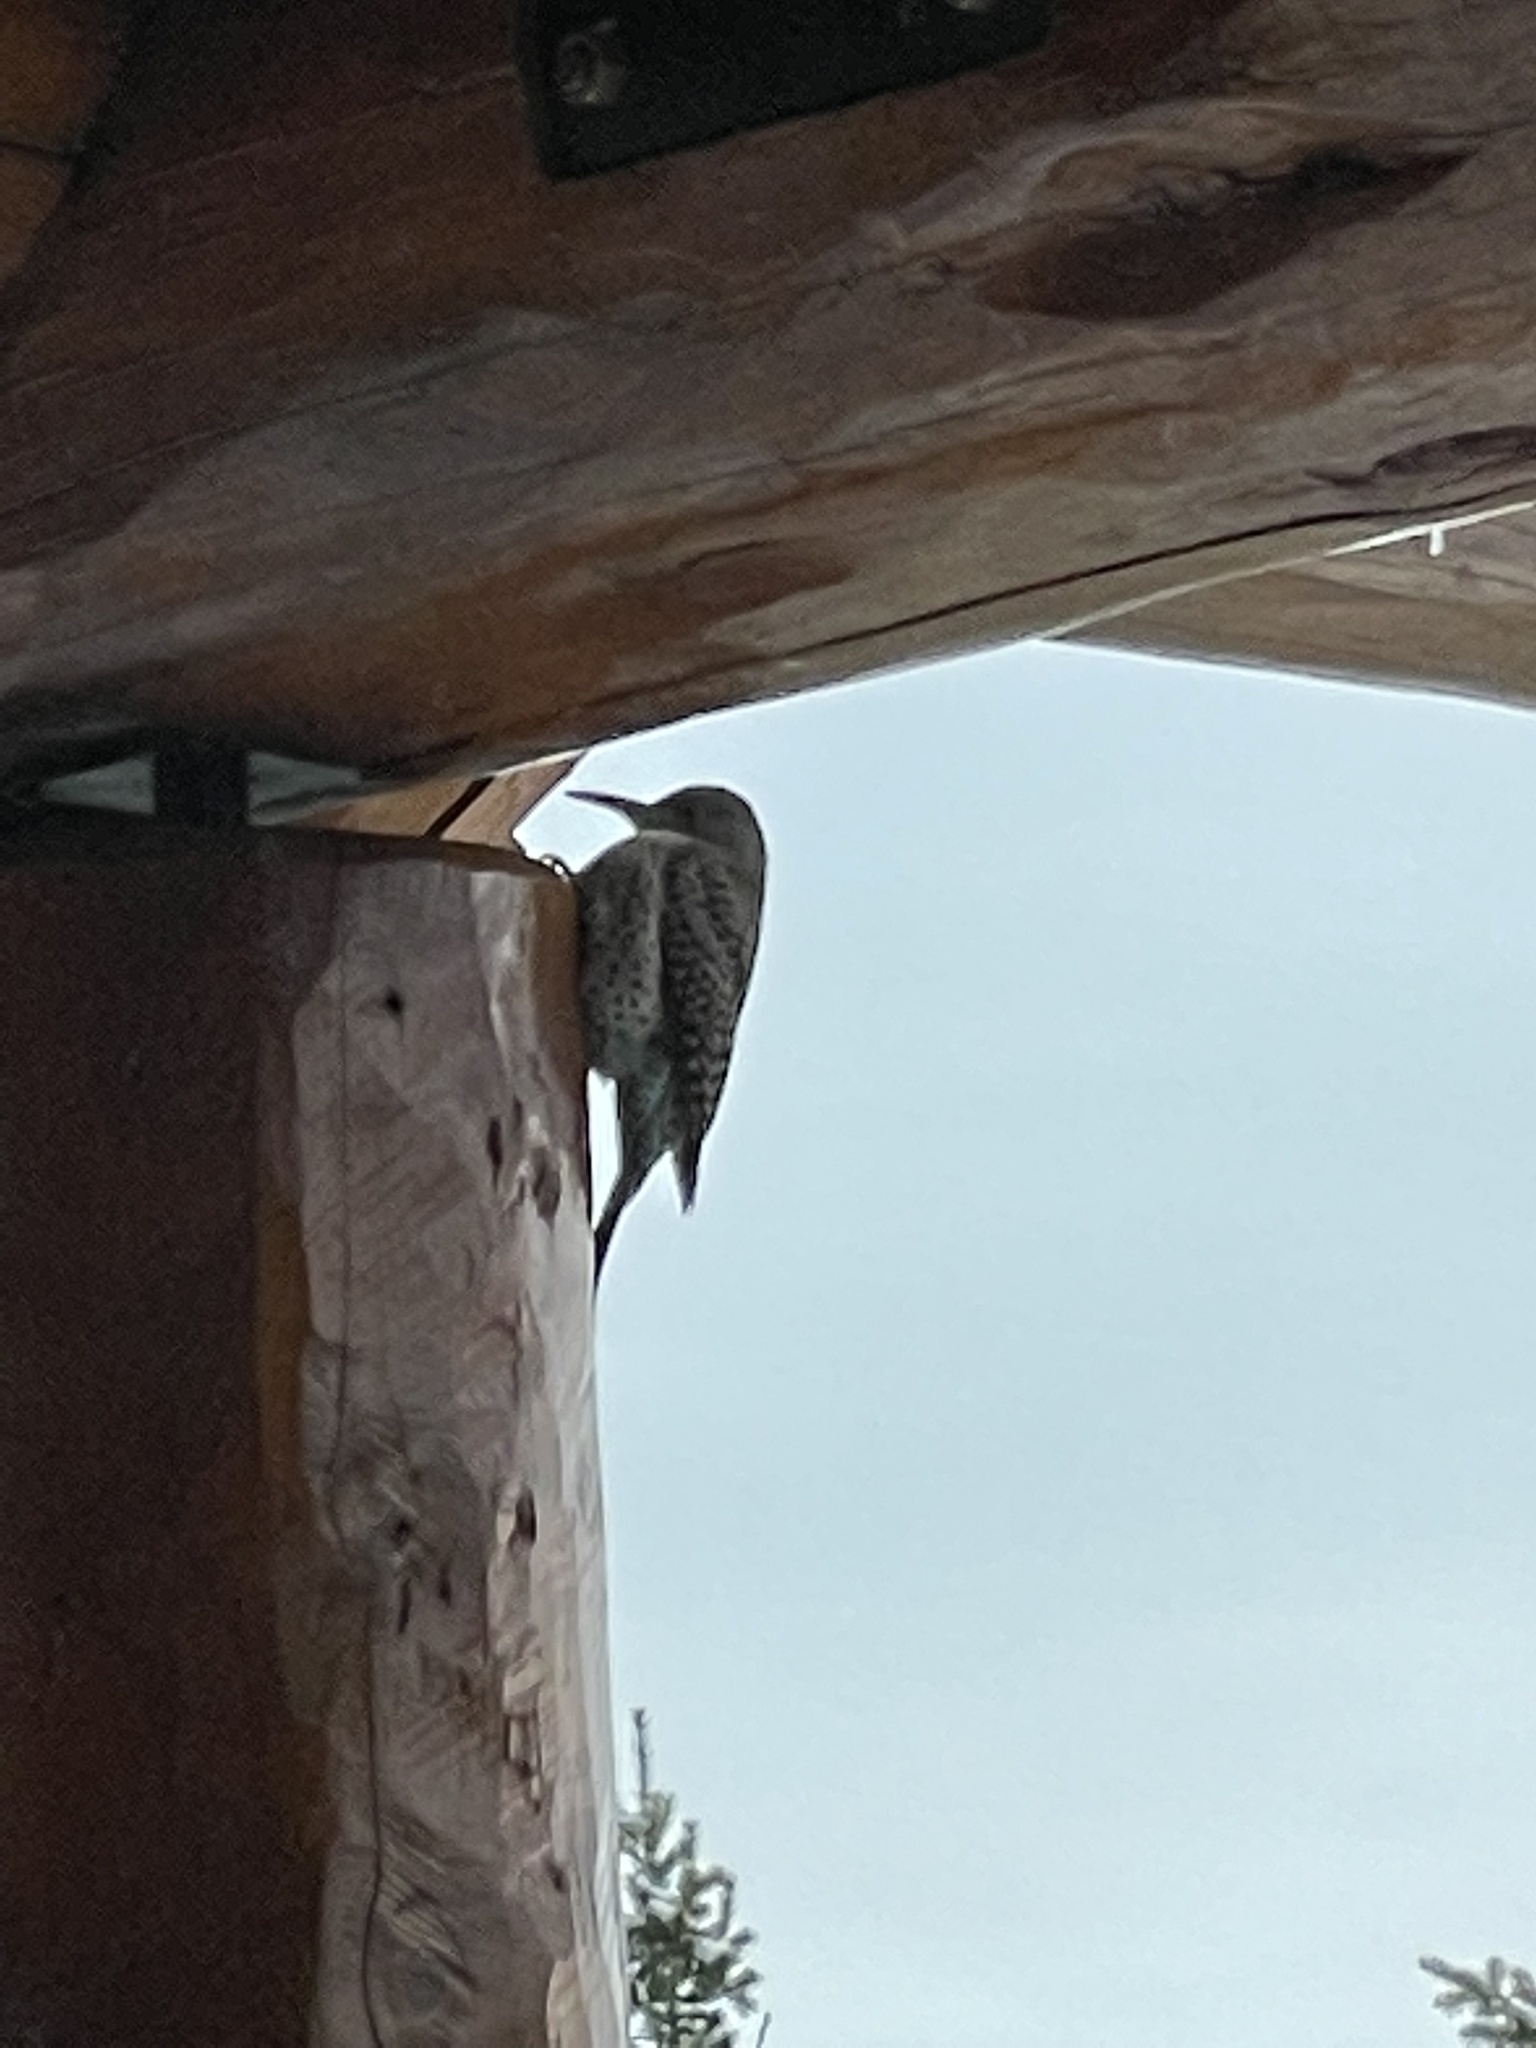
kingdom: Animalia
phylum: Chordata
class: Aves
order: Piciformes
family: Picidae
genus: Colaptes
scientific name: Colaptes auratus
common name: Northern flicker
